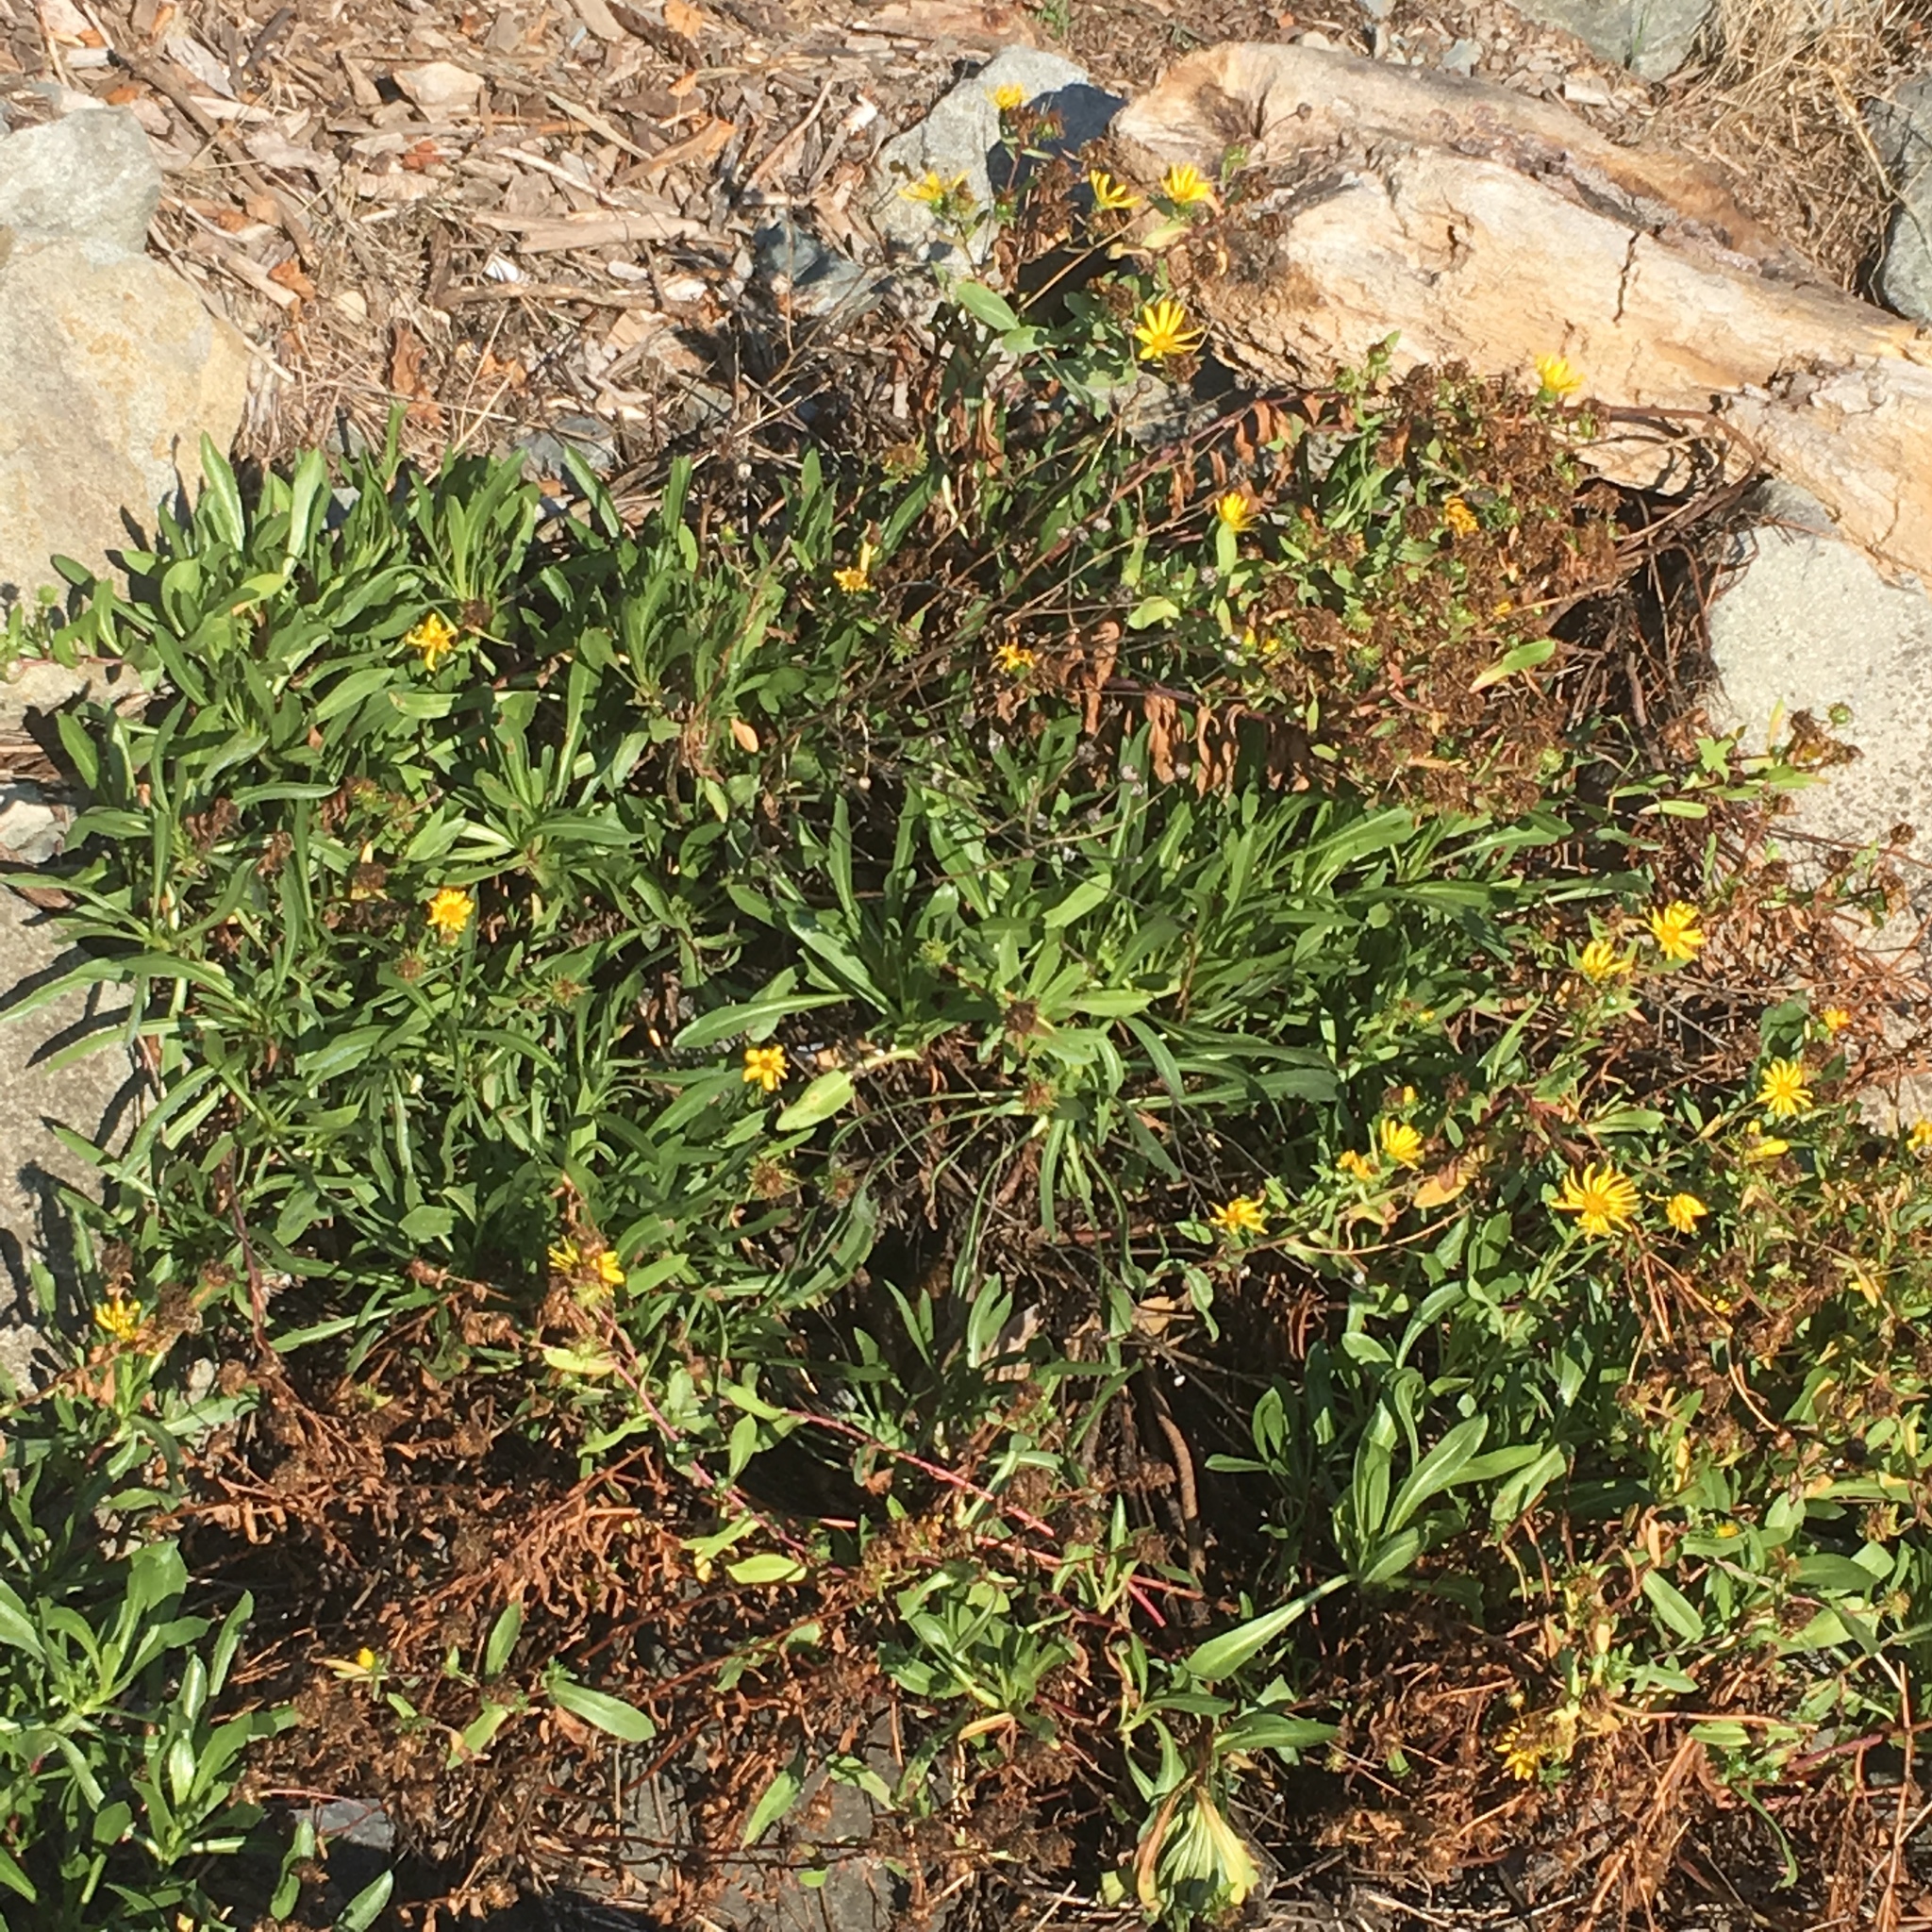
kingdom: Plantae
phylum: Tracheophyta
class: Magnoliopsida
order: Asterales
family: Asteraceae
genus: Grindelia
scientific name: Grindelia integrifolia
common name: Puget sound gumweed
